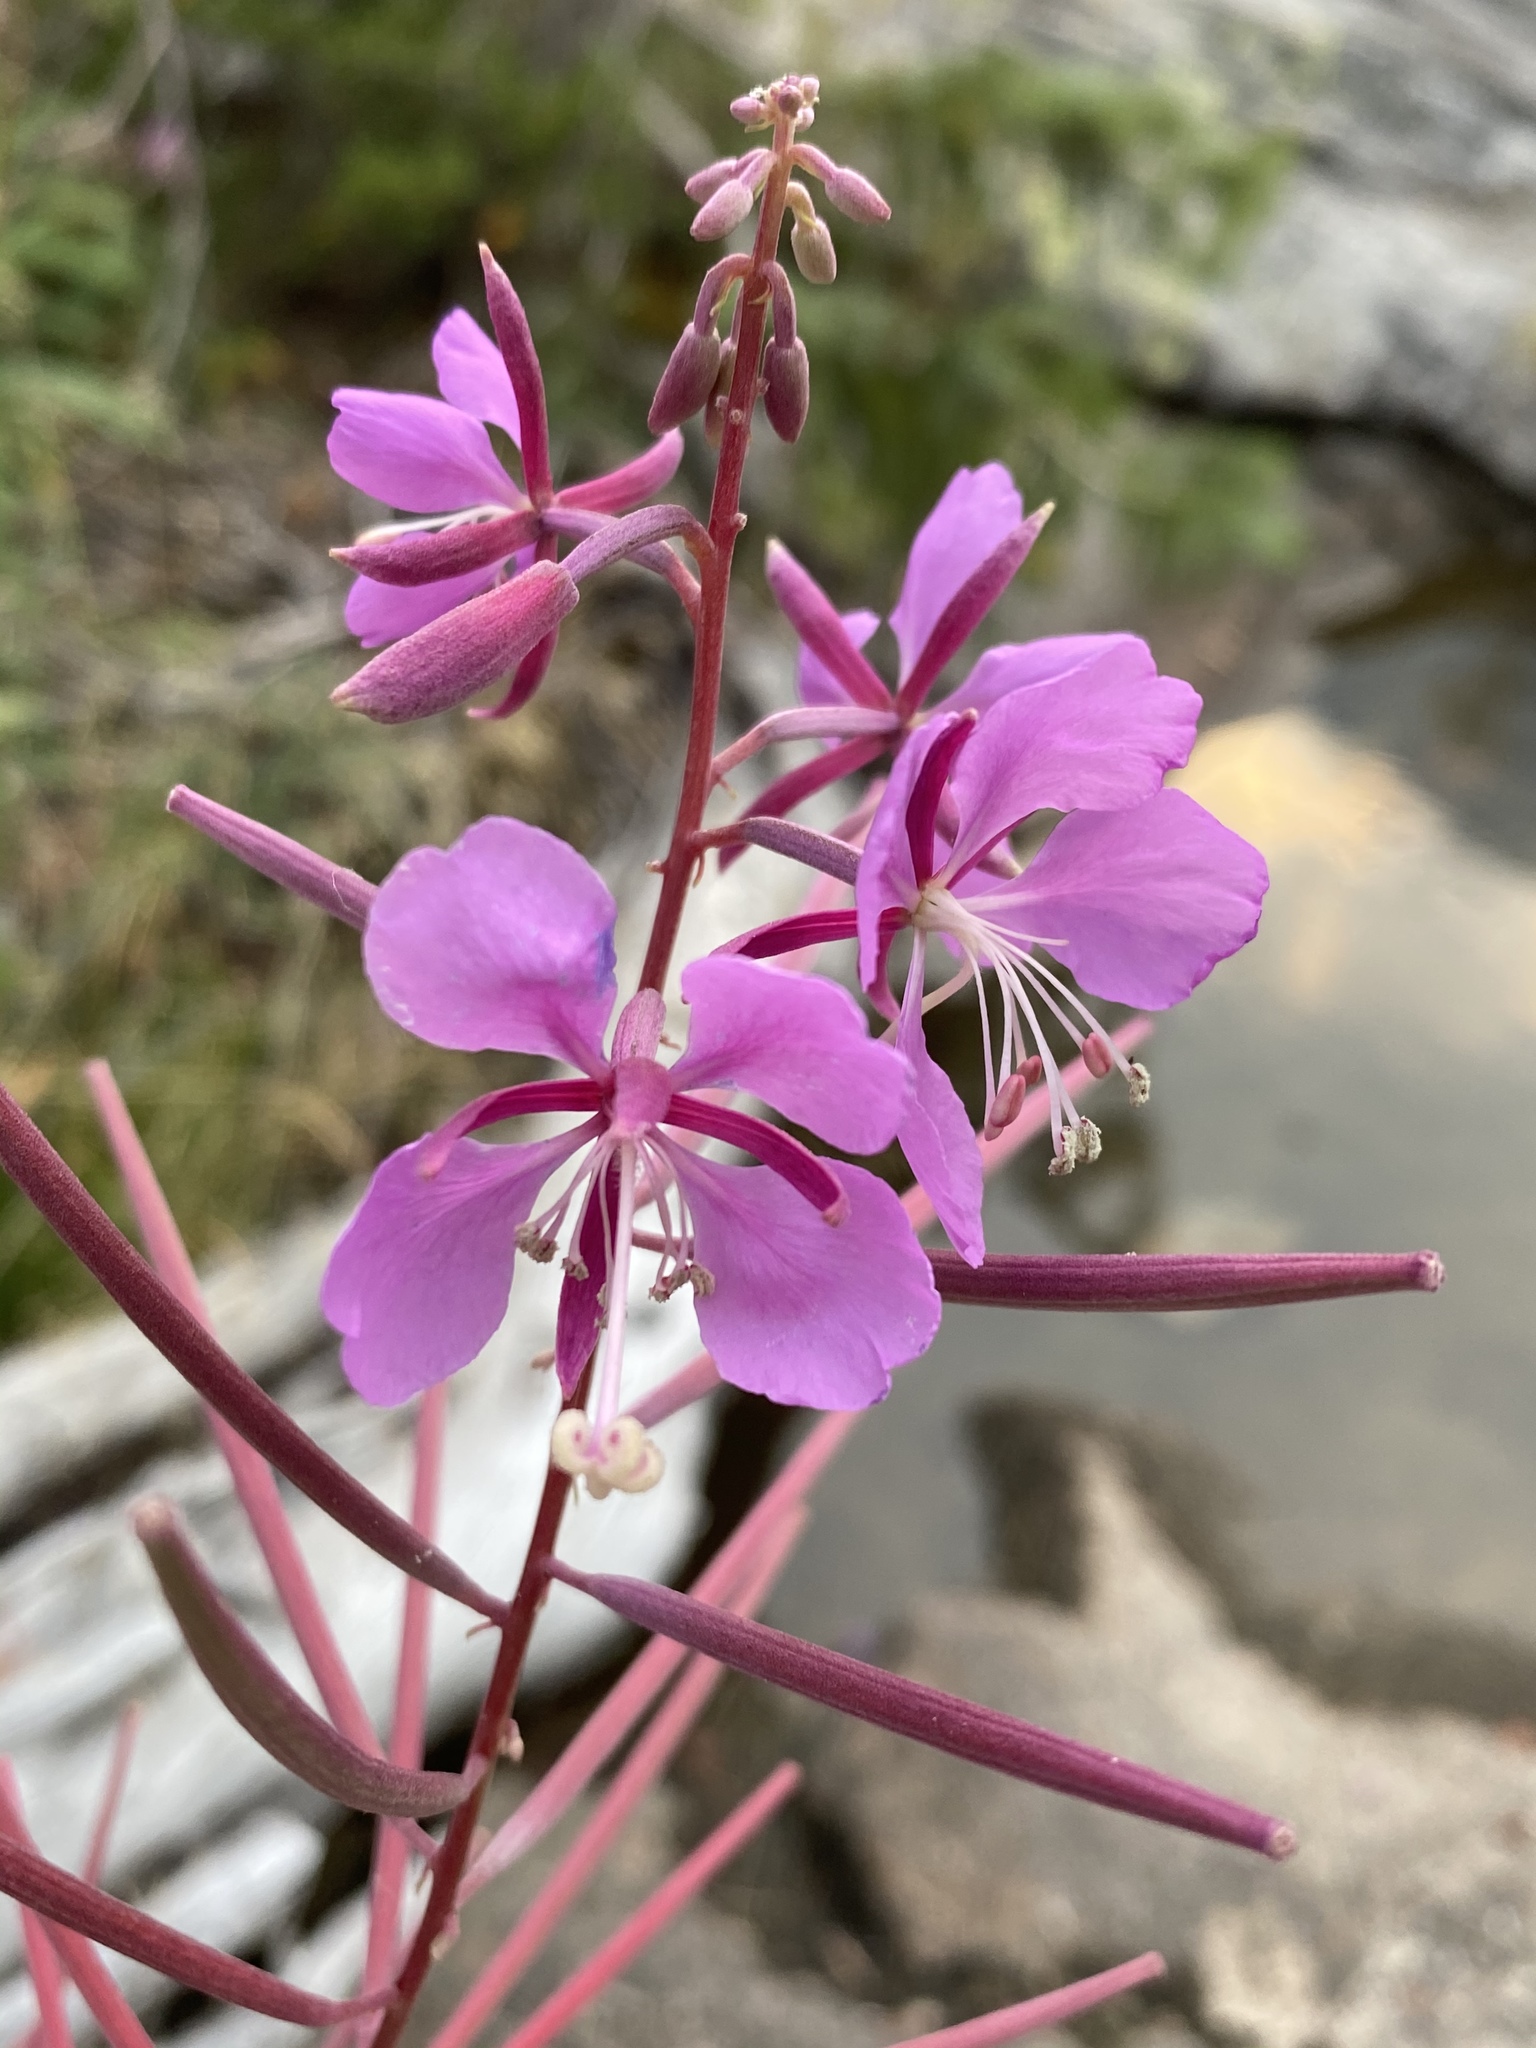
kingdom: Plantae
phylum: Tracheophyta
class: Magnoliopsida
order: Myrtales
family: Onagraceae
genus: Chamaenerion
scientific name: Chamaenerion angustifolium
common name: Fireweed
